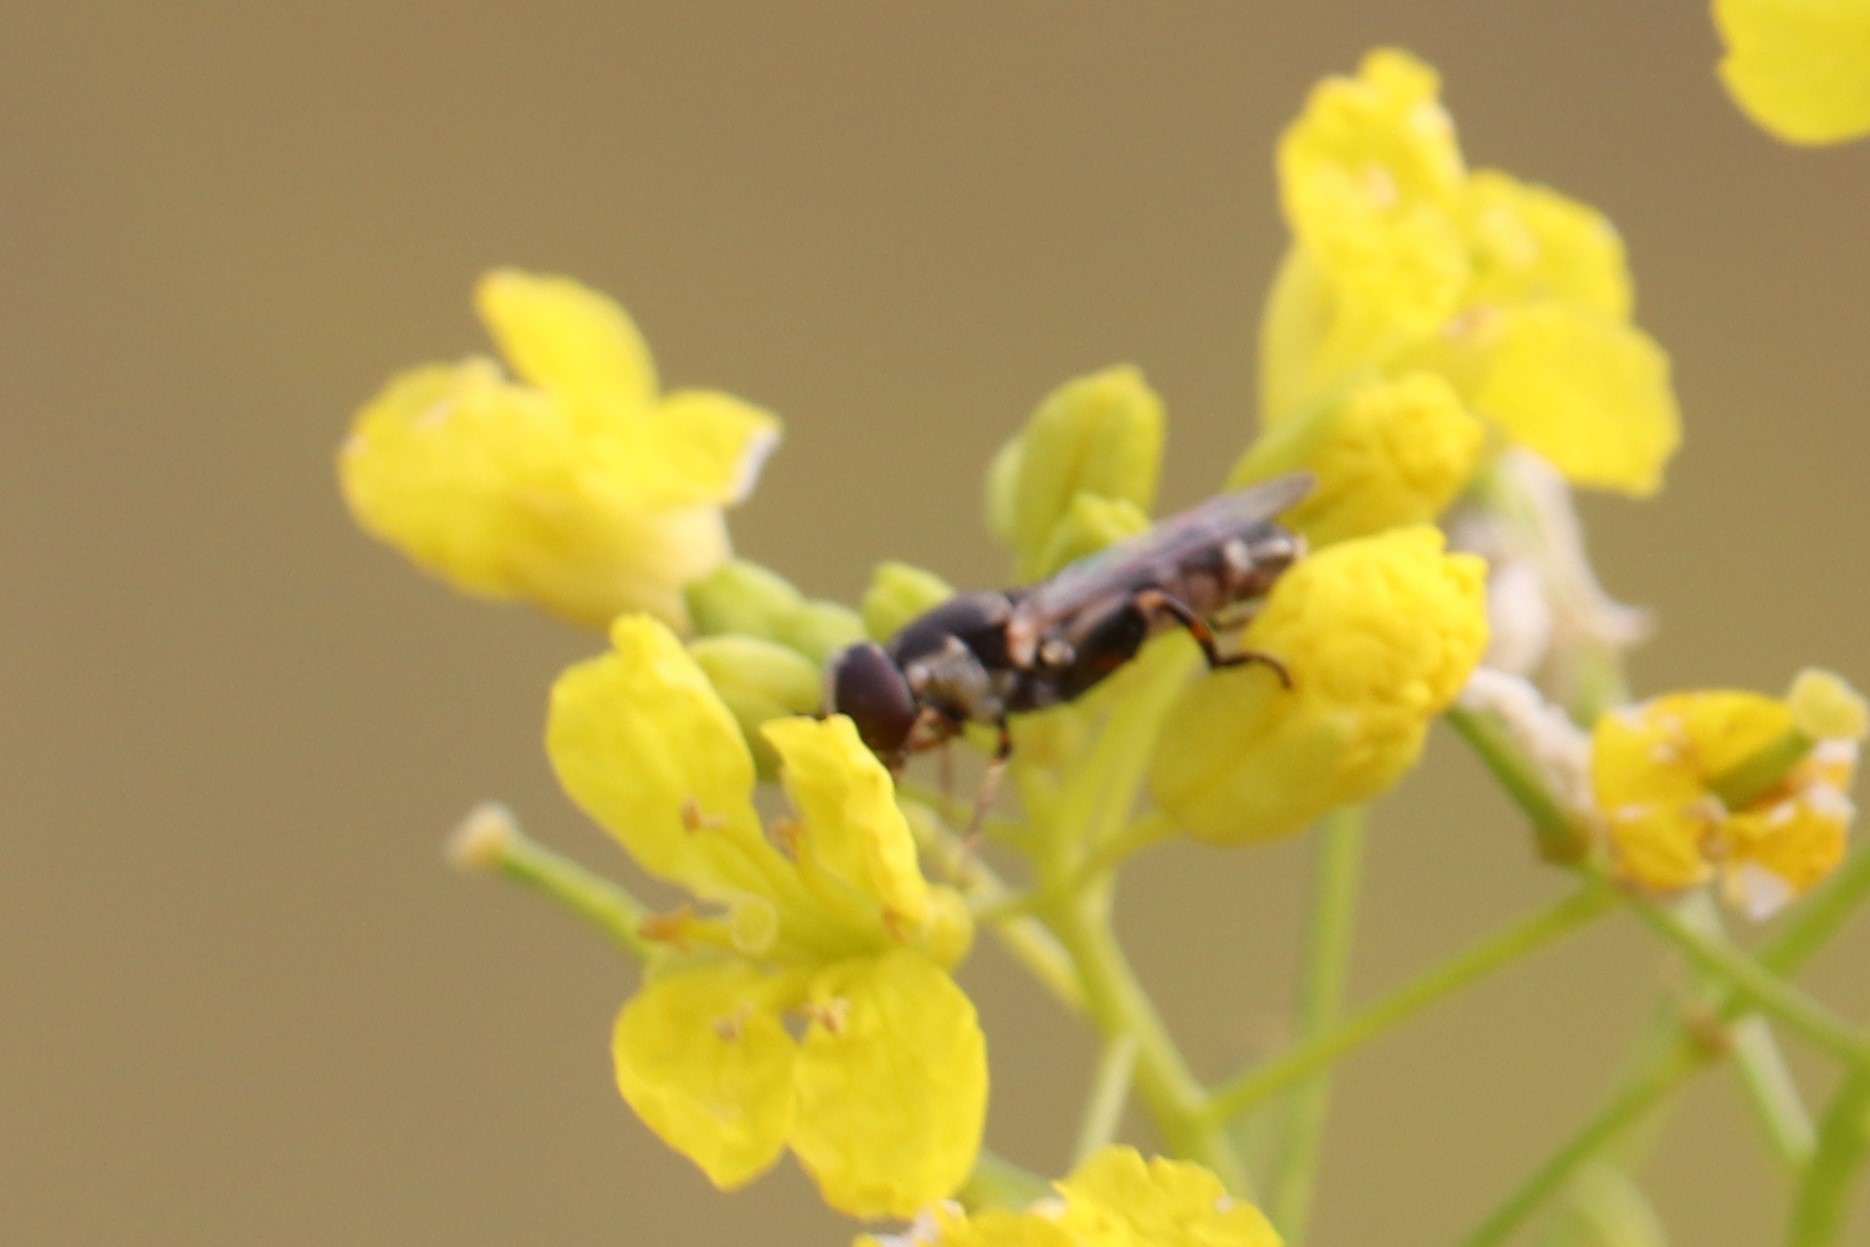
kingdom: Animalia
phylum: Arthropoda
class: Insecta
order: Diptera
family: Syrphidae
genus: Syritta
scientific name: Syritta pipiens
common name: Hover fly
